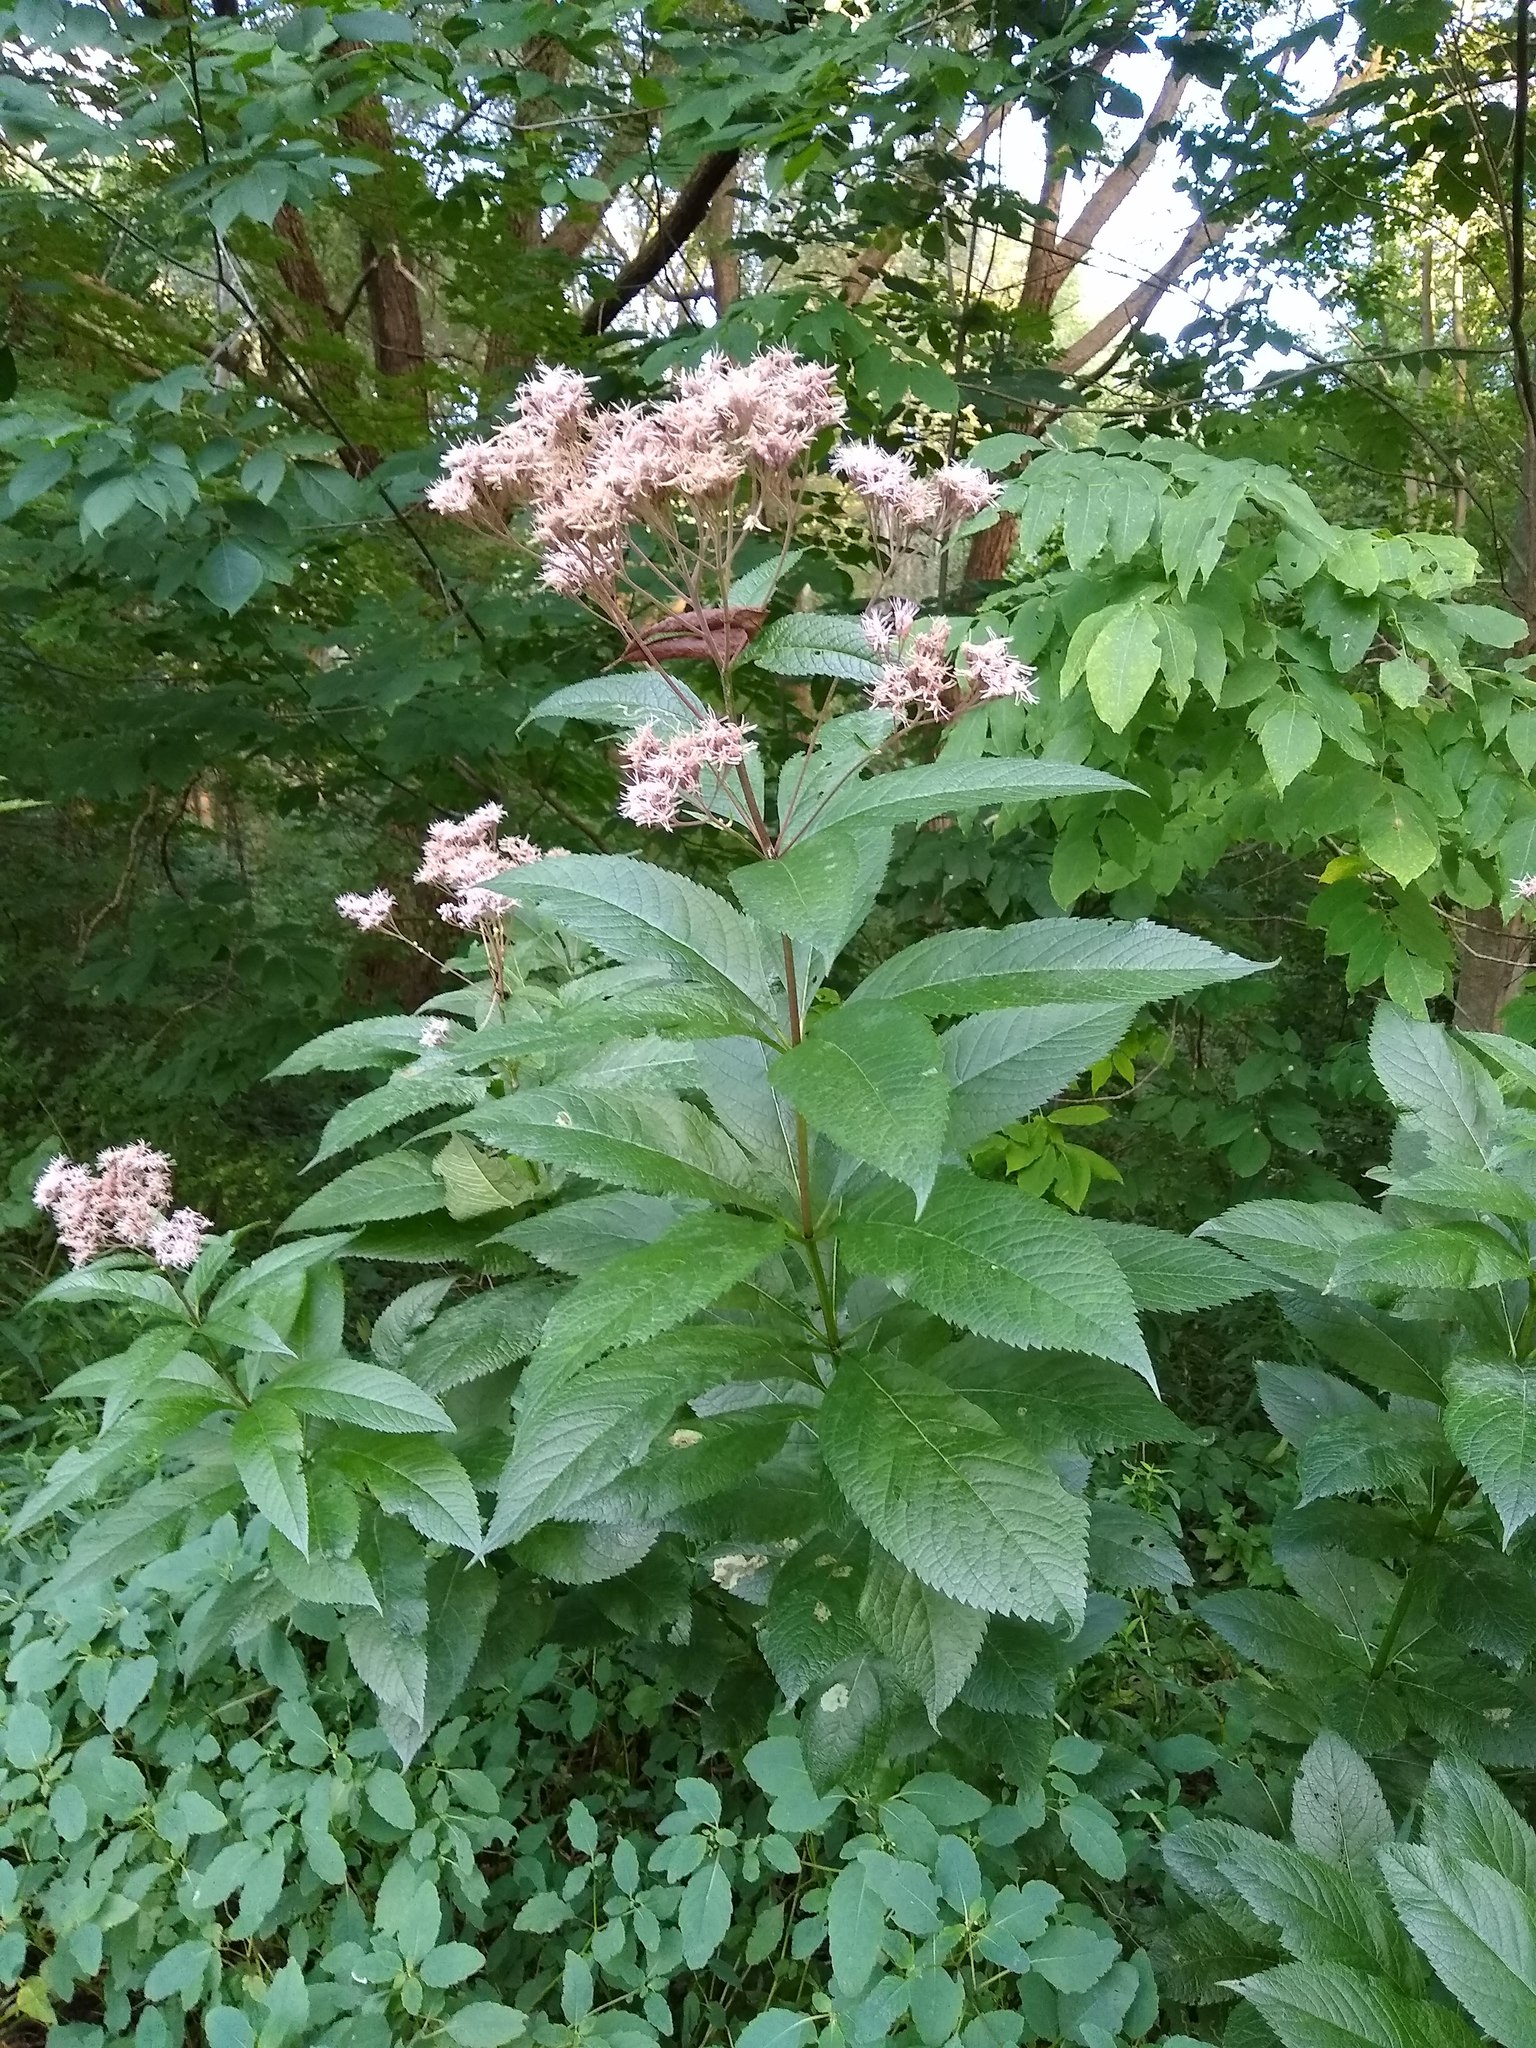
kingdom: Plantae
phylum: Tracheophyta
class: Magnoliopsida
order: Asterales
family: Asteraceae
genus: Eutrochium
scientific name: Eutrochium maculatum
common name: Spotted joe pye weed
